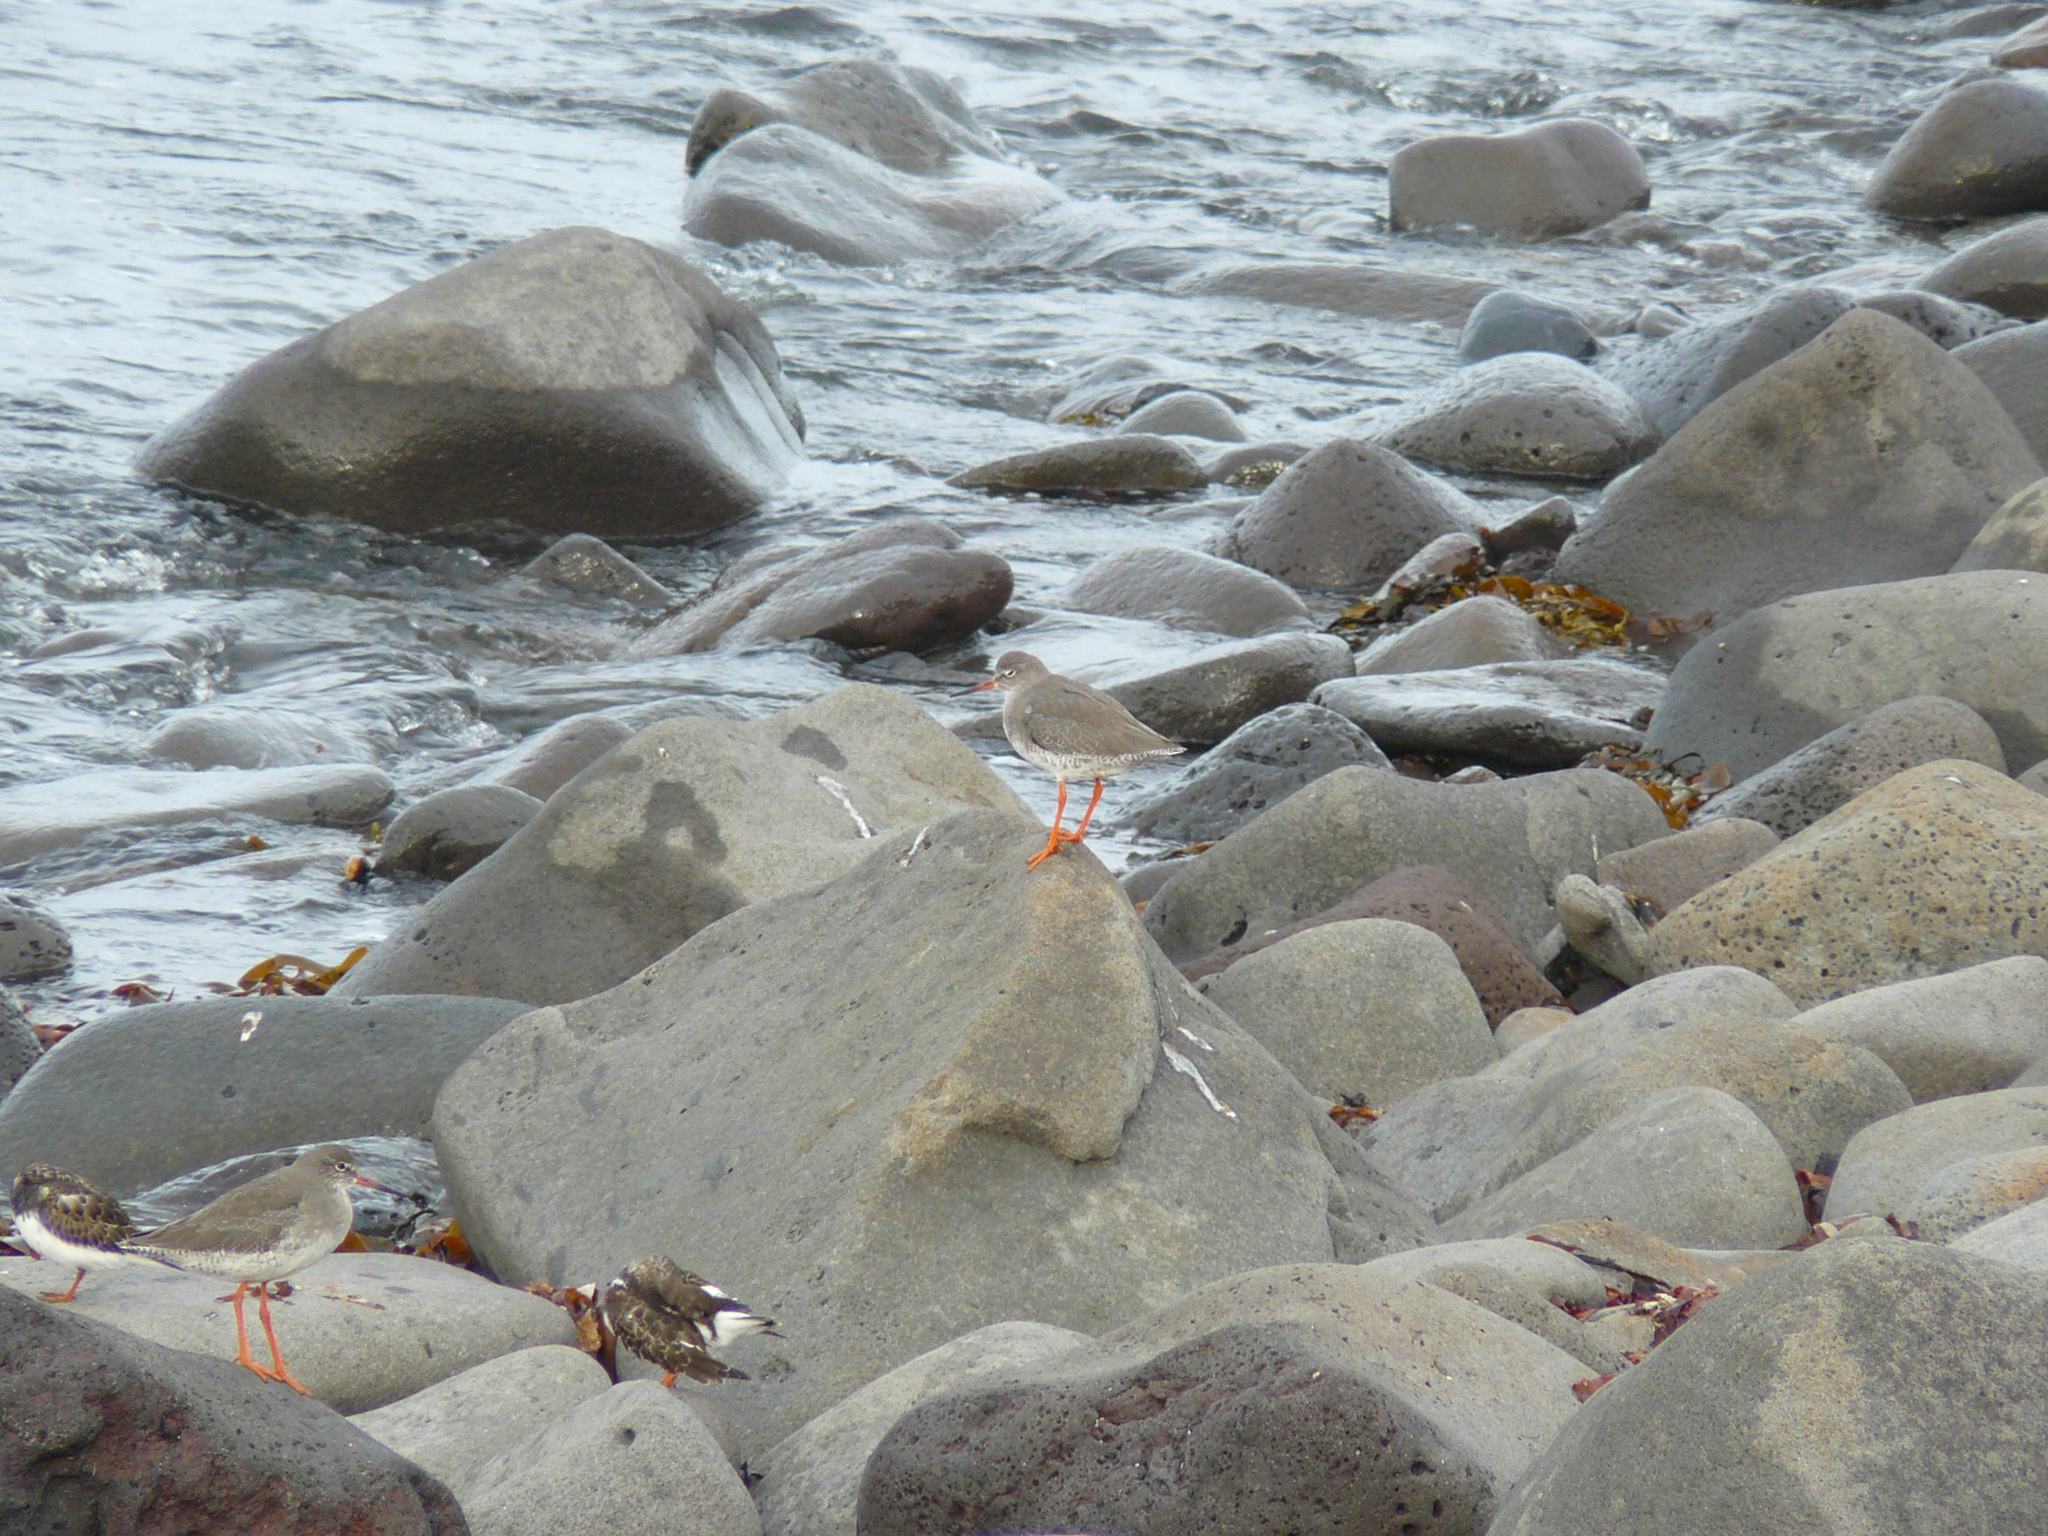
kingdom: Animalia
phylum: Chordata
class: Aves
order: Charadriiformes
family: Scolopacidae
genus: Tringa
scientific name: Tringa totanus
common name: Common redshank
